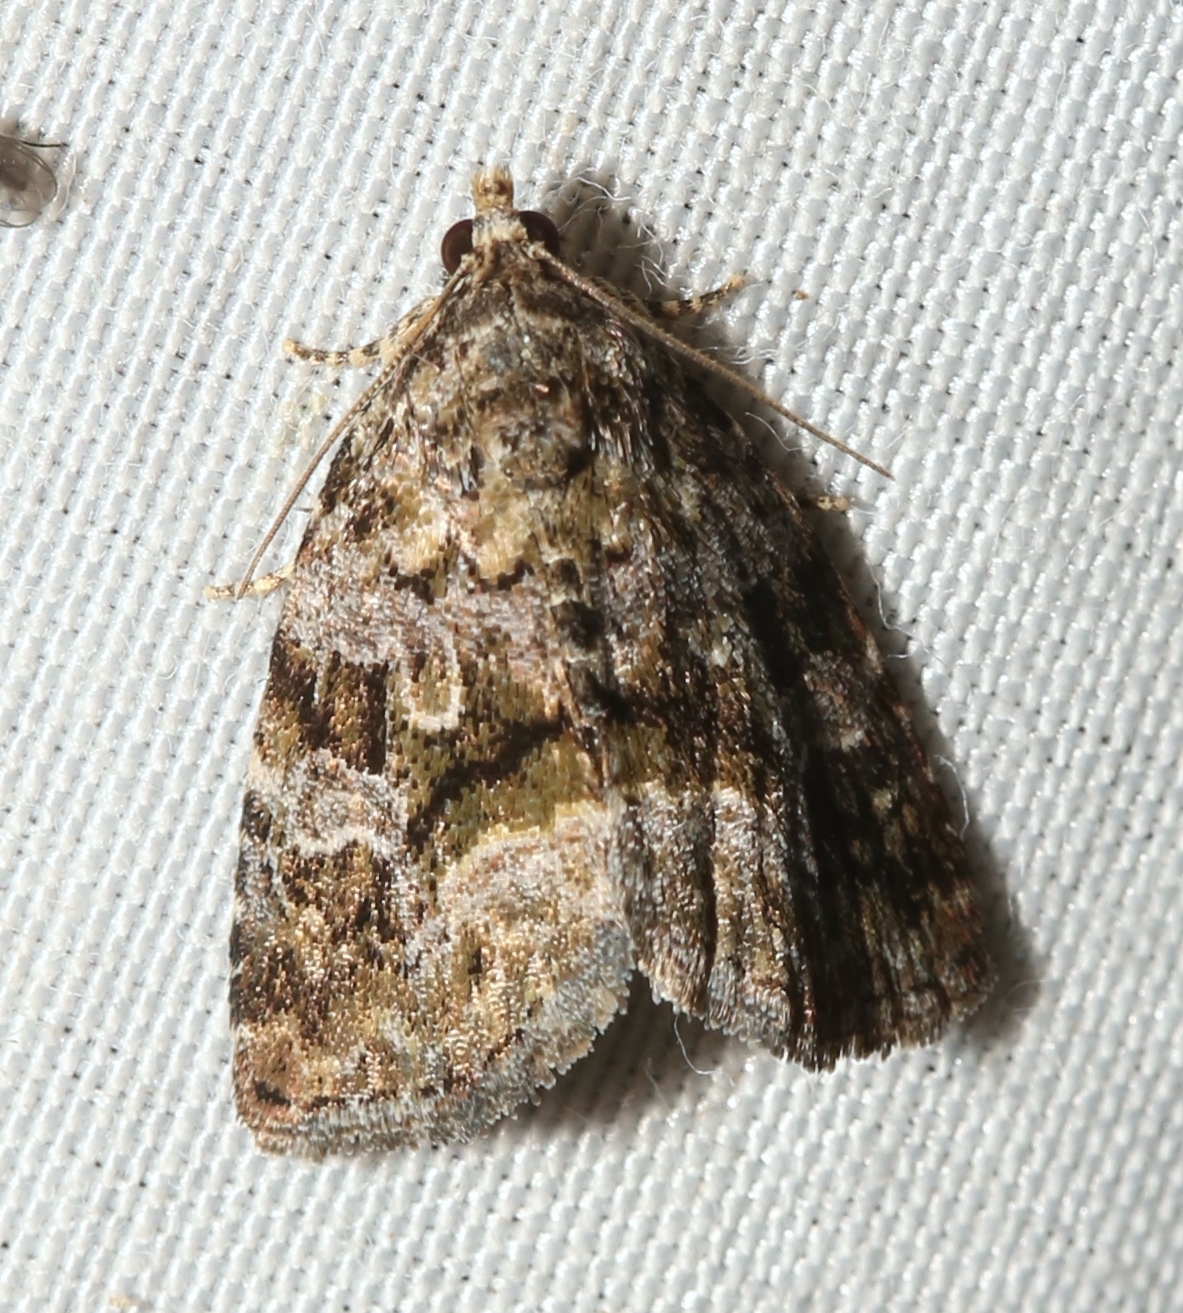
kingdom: Animalia
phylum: Arthropoda
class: Insecta
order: Lepidoptera
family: Noctuidae
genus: Protodeltote
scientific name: Protodeltote muscosula
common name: Large mossy glyph
